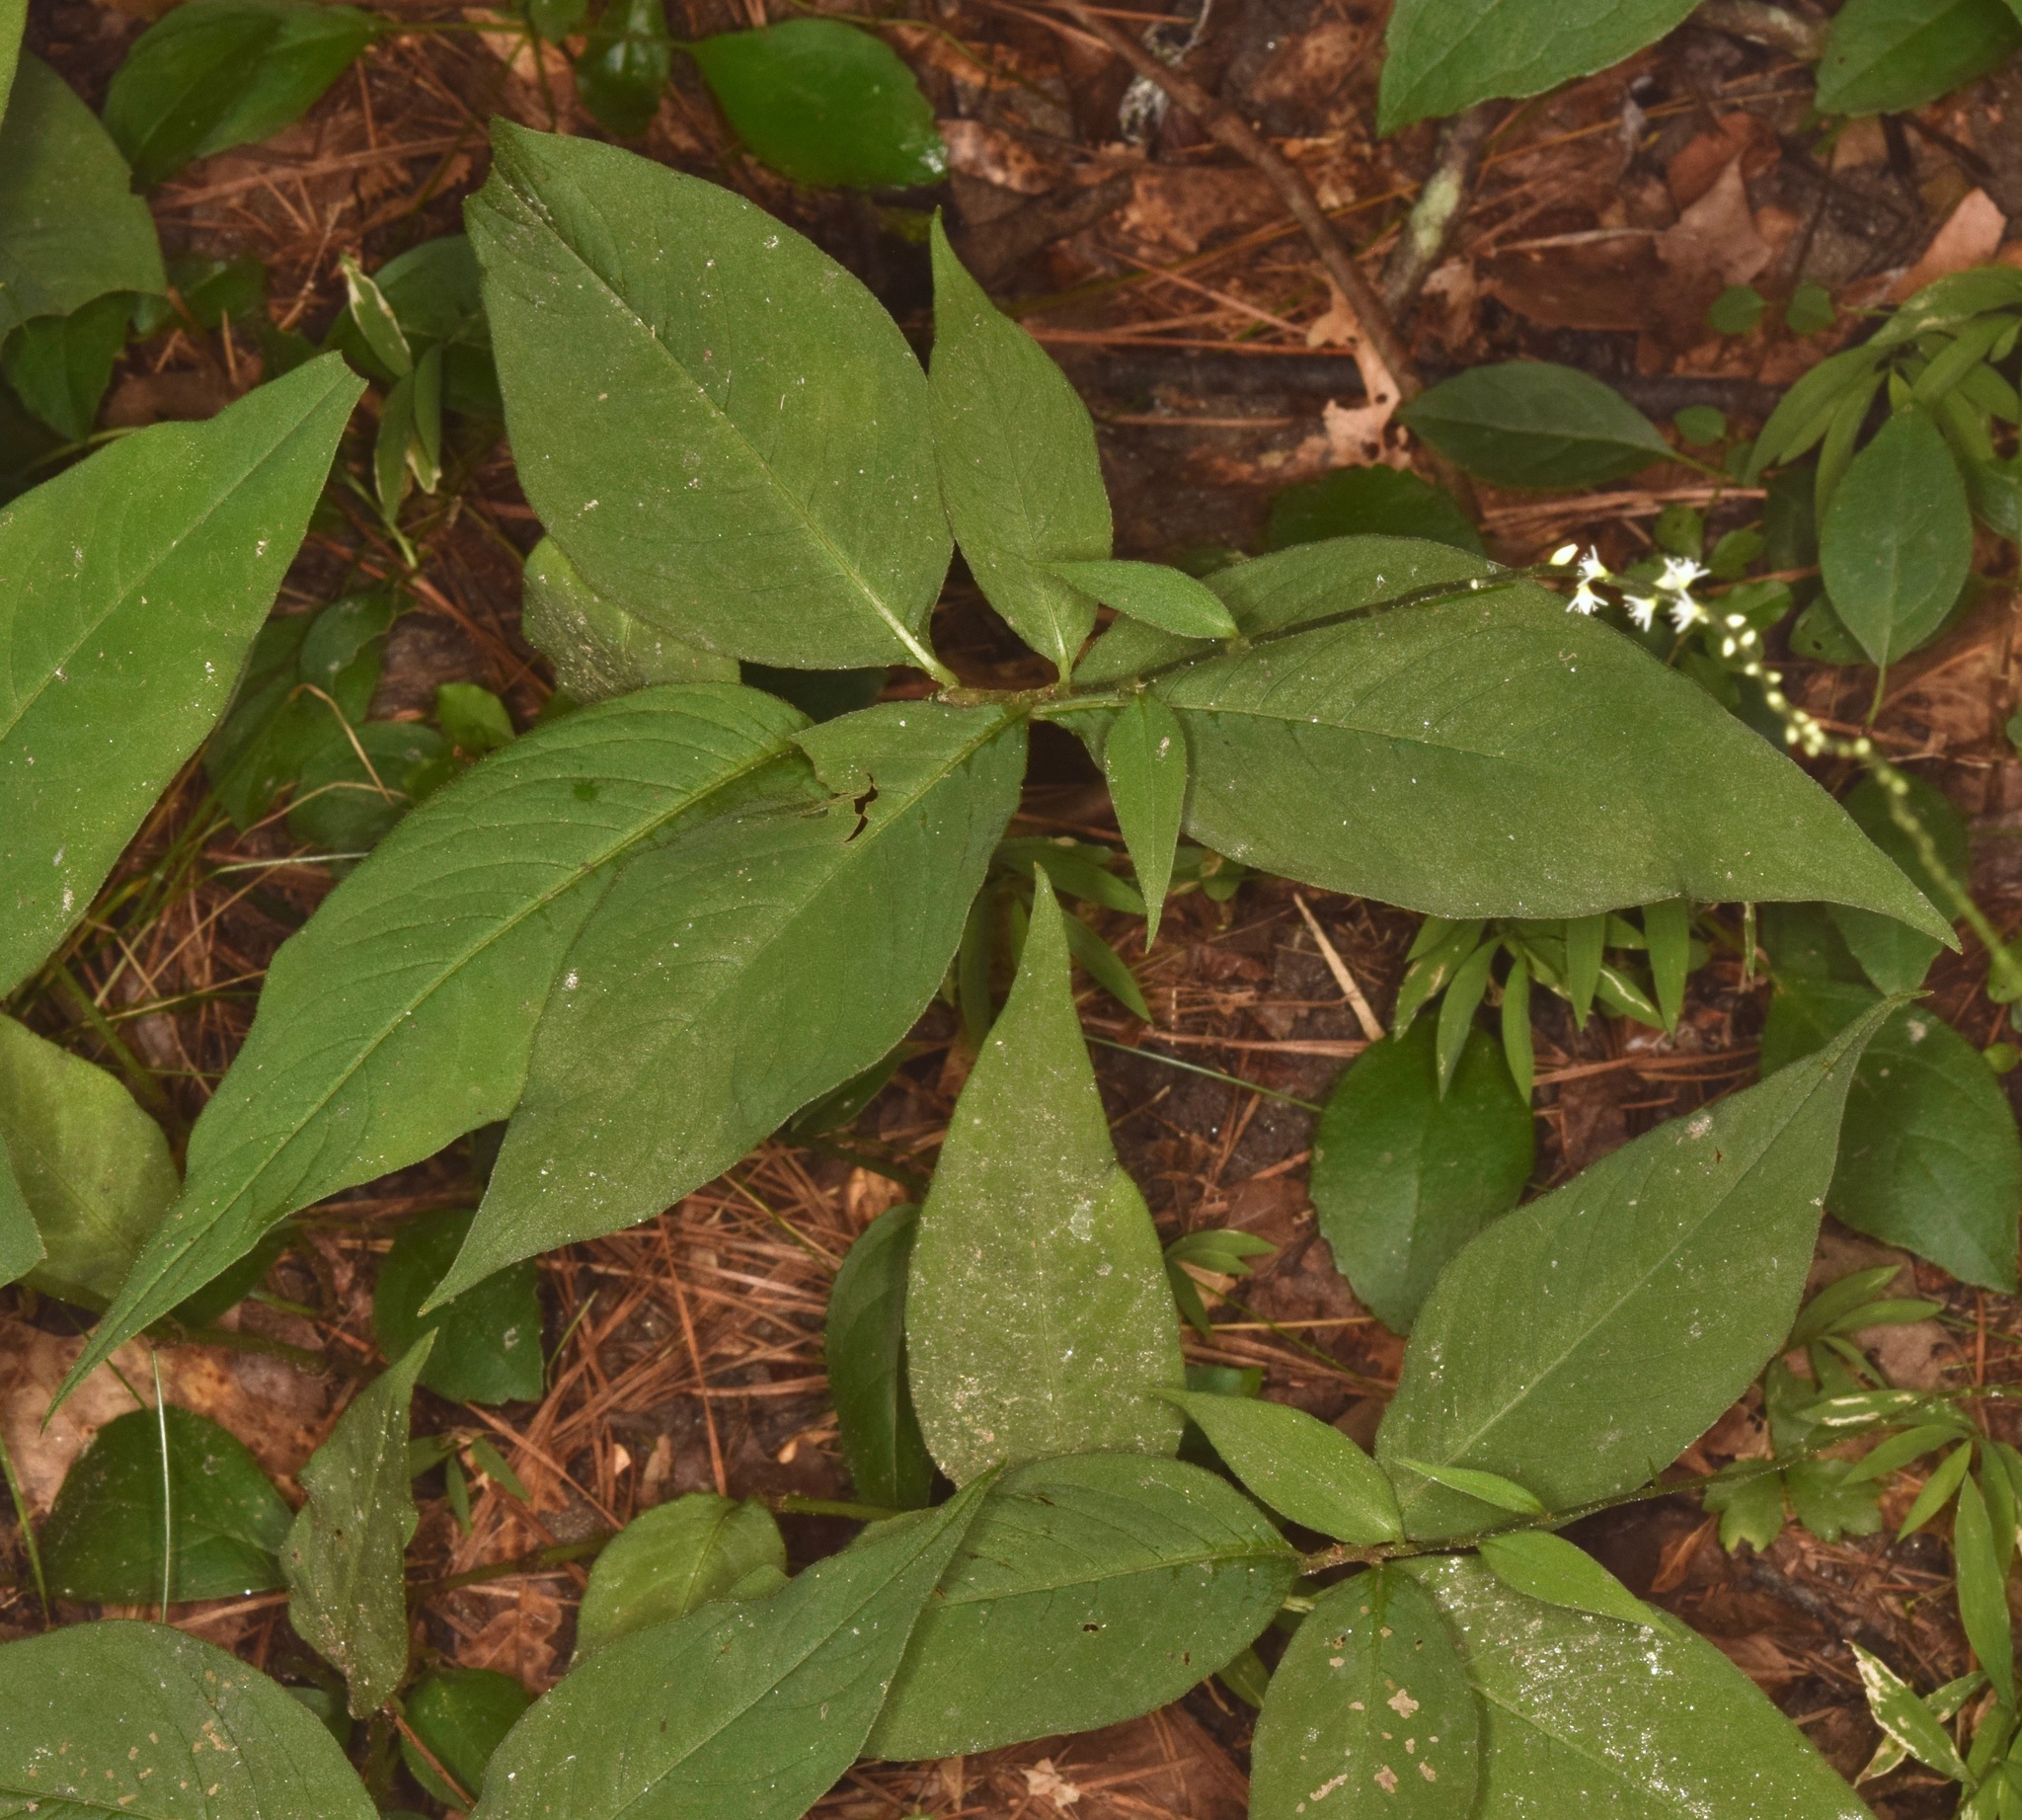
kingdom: Plantae
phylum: Tracheophyta
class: Magnoliopsida
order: Caryophyllales
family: Polygonaceae
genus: Persicaria
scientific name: Persicaria virginiana
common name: Jumpseed
